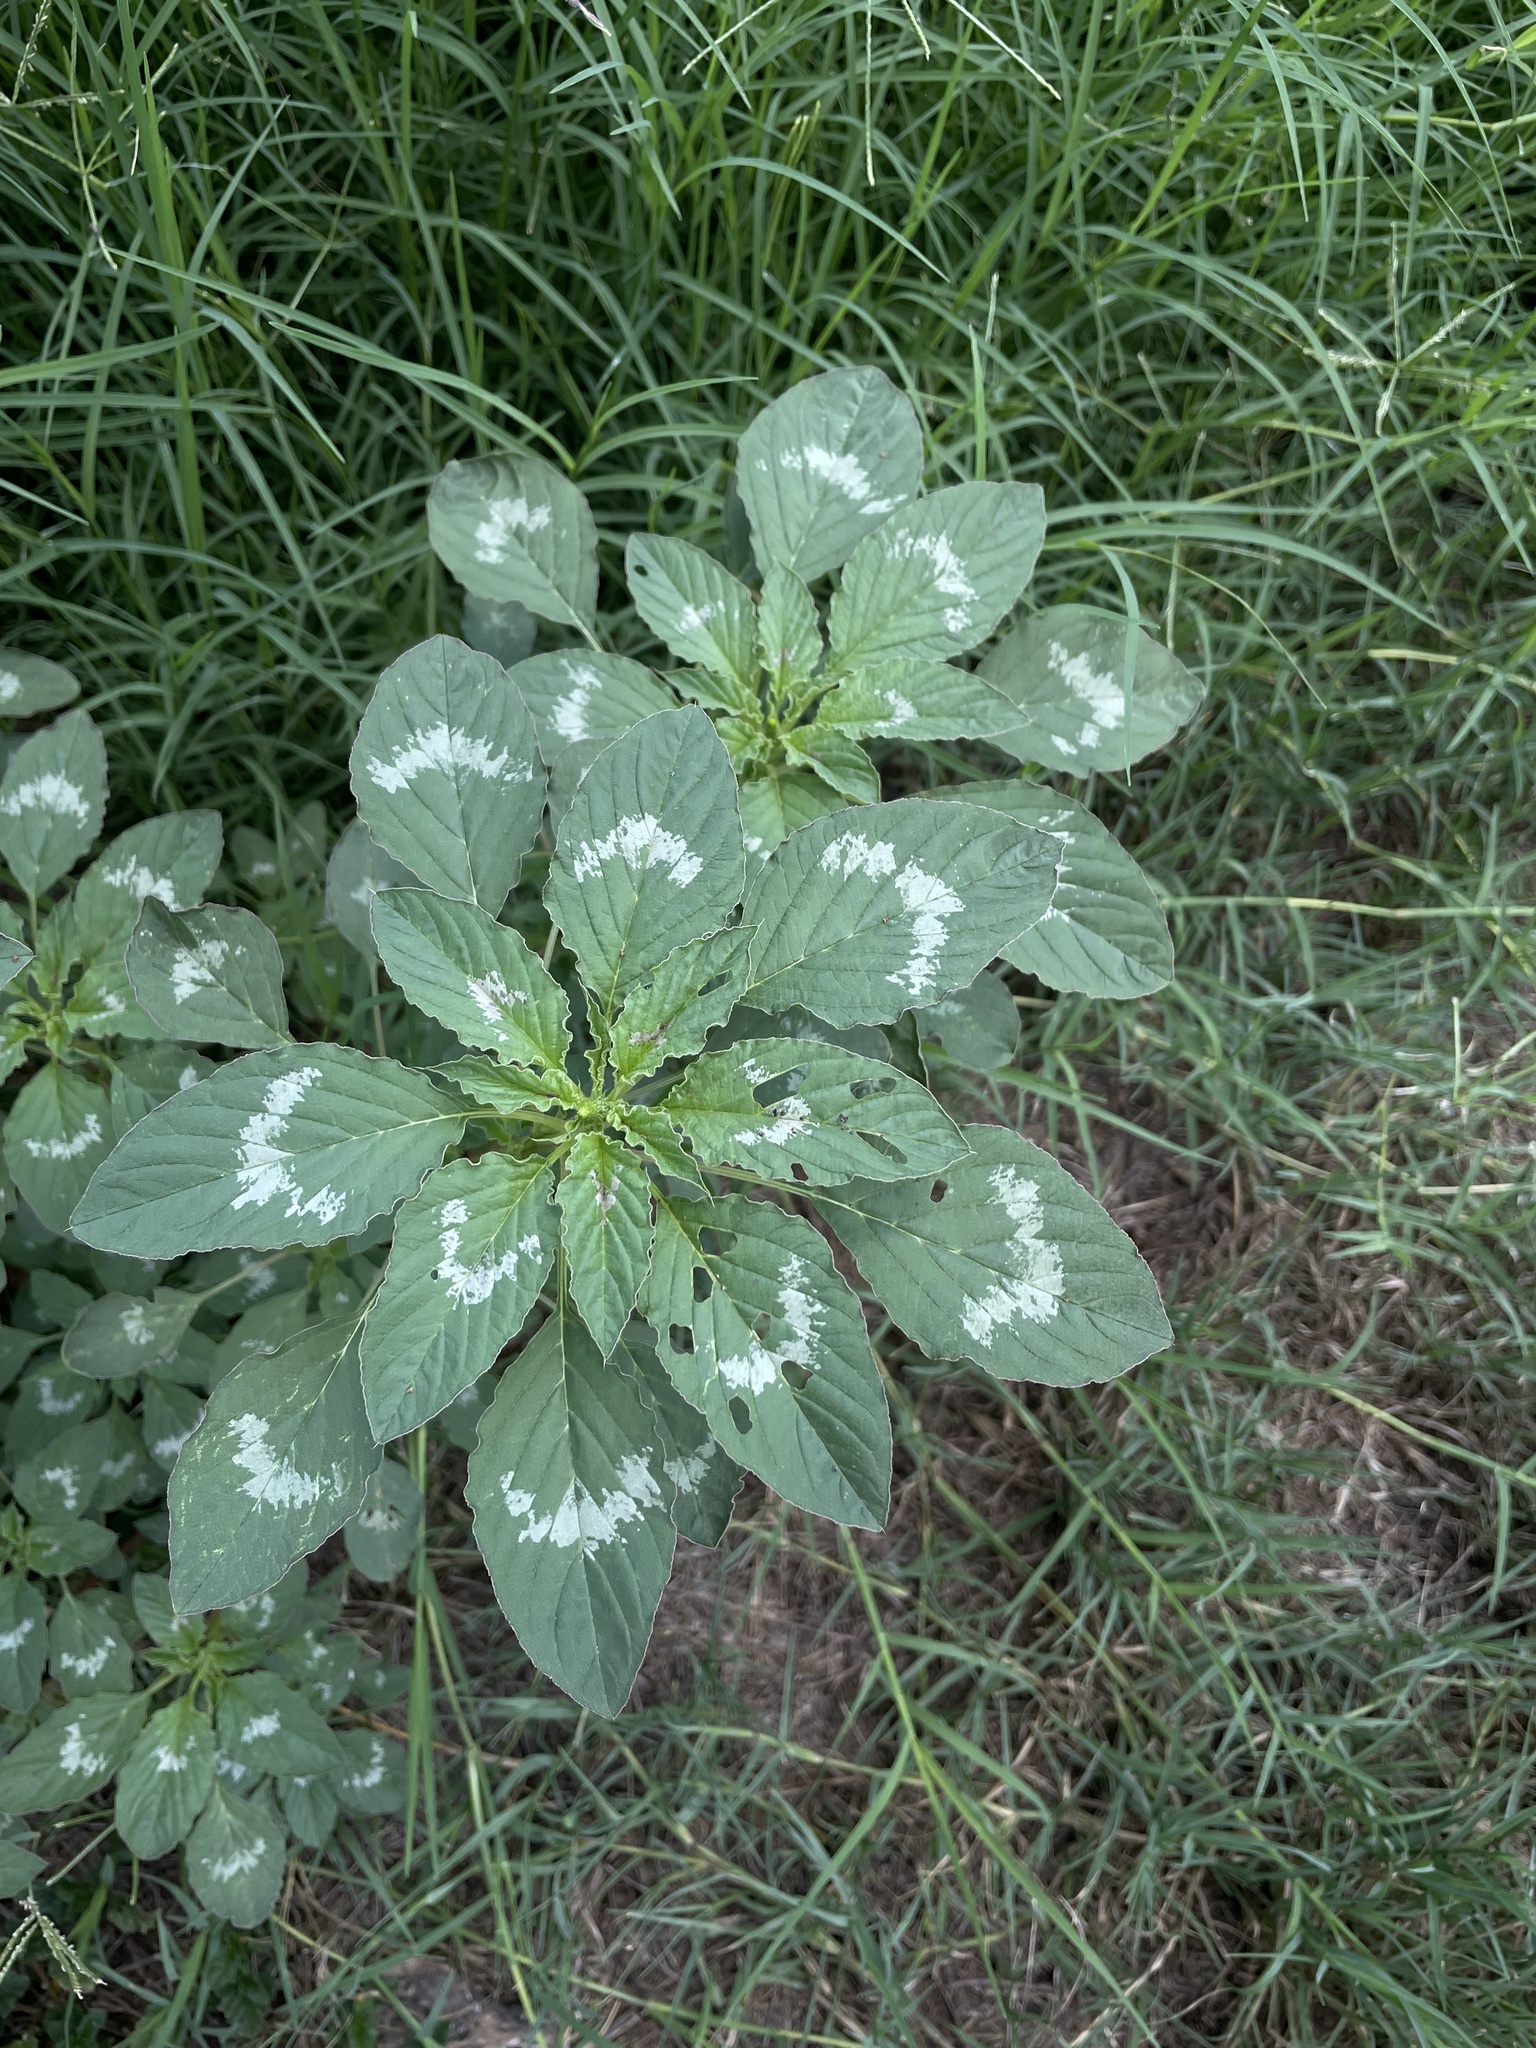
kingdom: Plantae
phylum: Tracheophyta
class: Magnoliopsida
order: Caryophyllales
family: Amaranthaceae
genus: Amaranthus
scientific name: Amaranthus palmeri
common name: Dioecious amaranth
